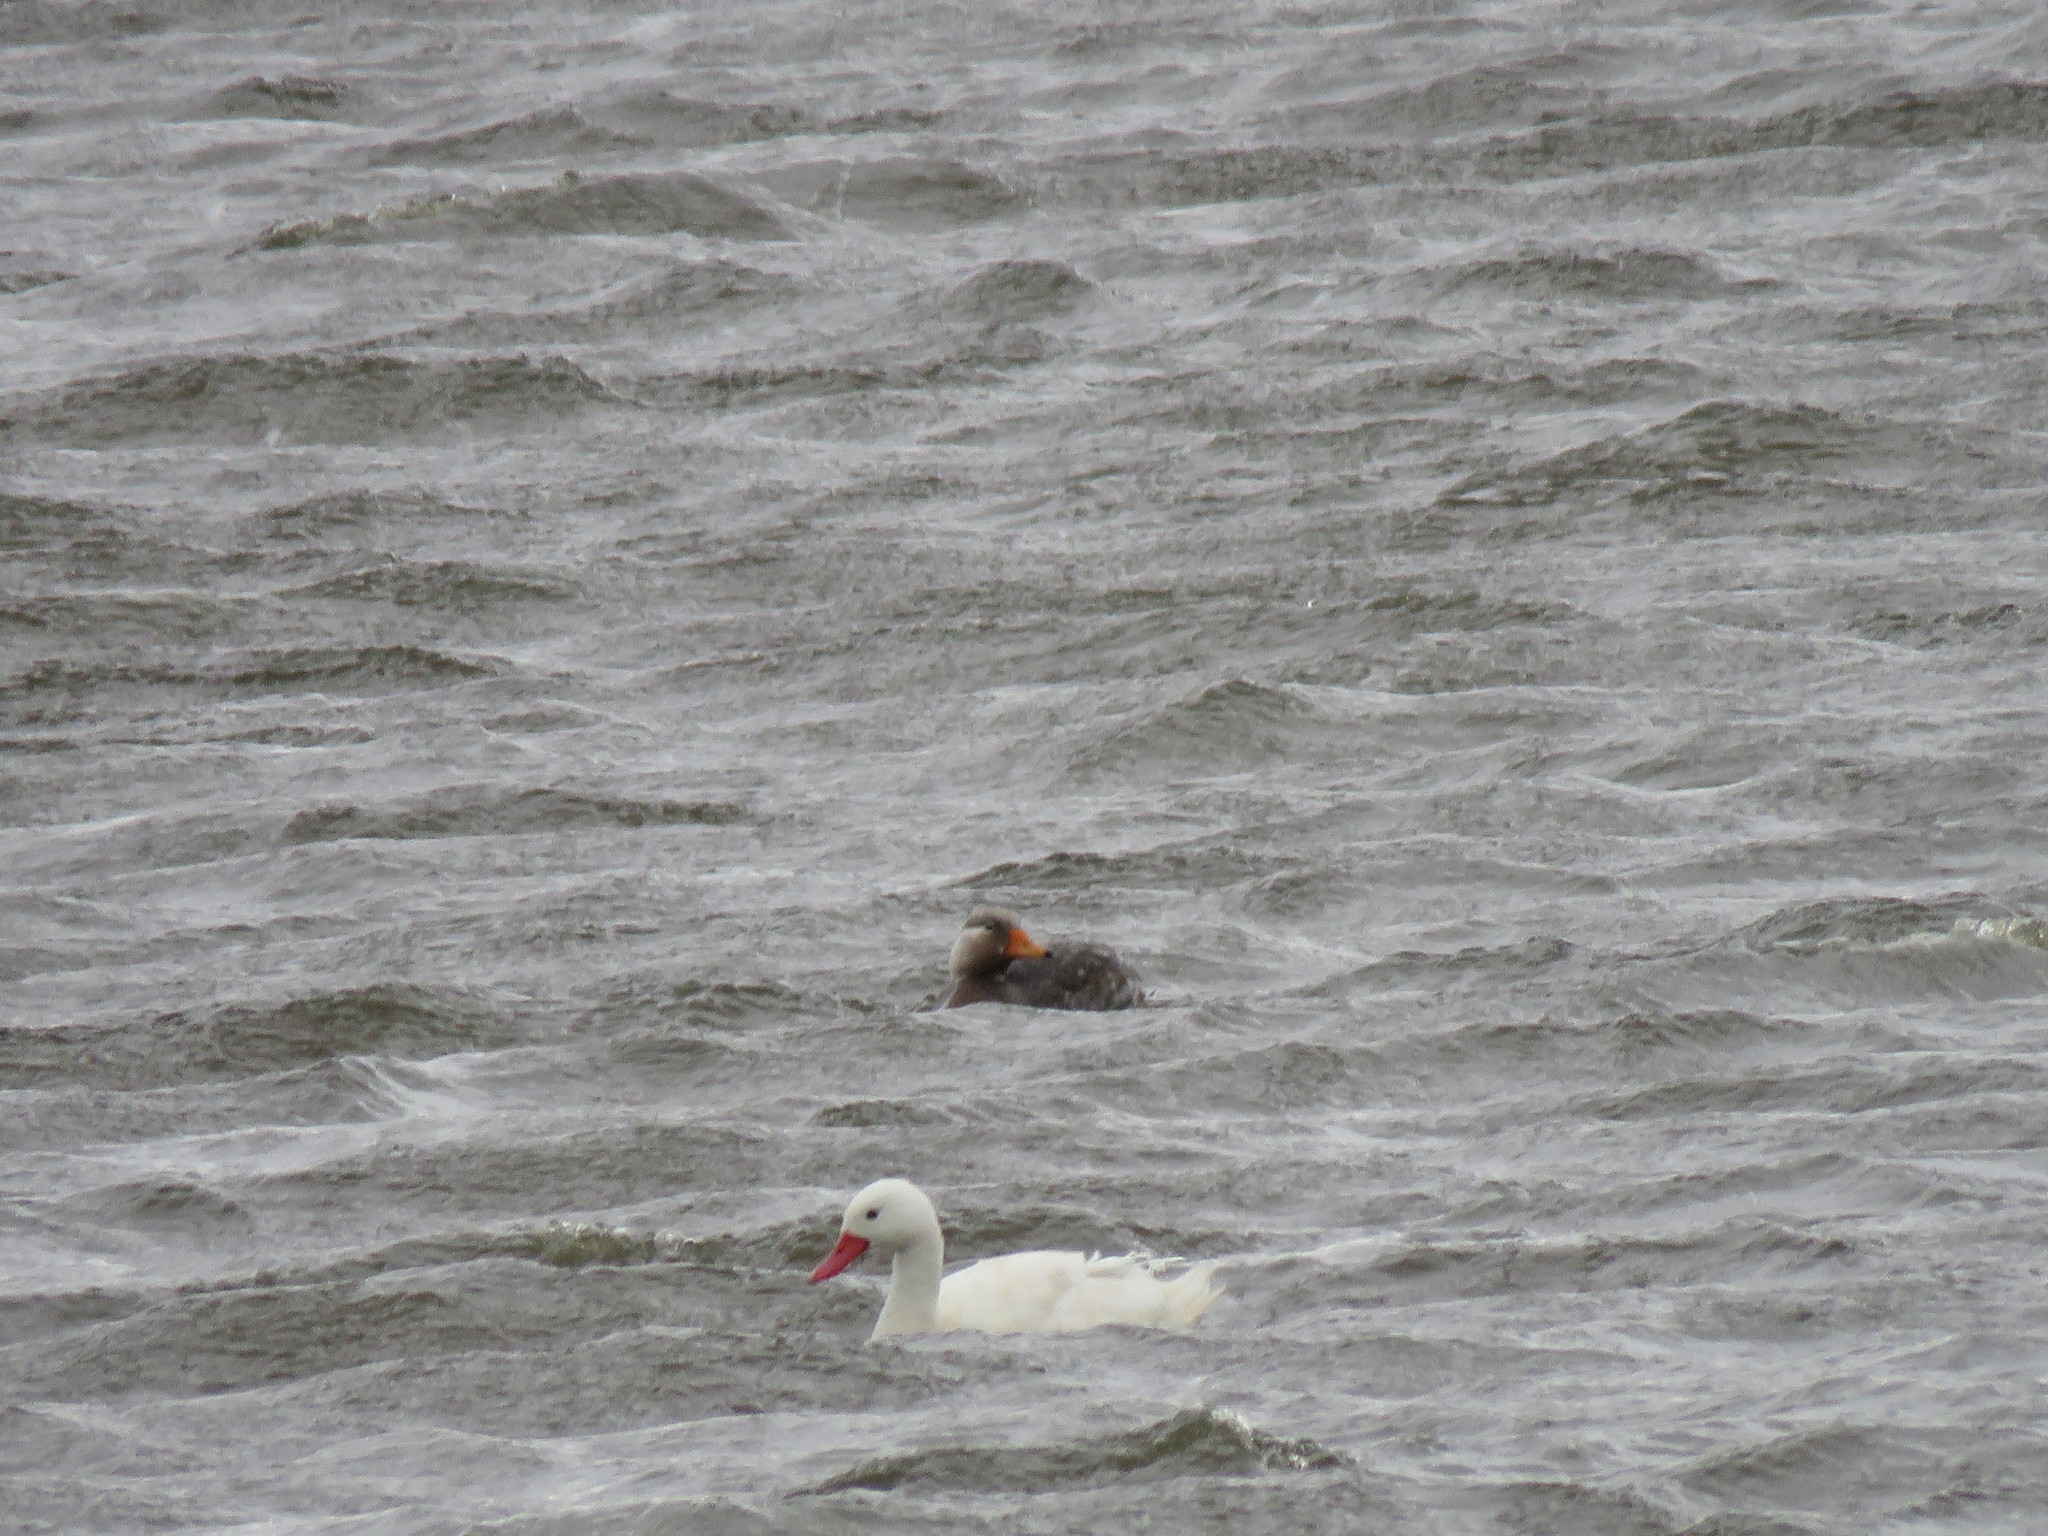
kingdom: Animalia
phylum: Chordata
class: Aves
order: Anseriformes
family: Anatidae
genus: Coscoroba
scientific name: Coscoroba coscoroba
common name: Coscoroba swan
